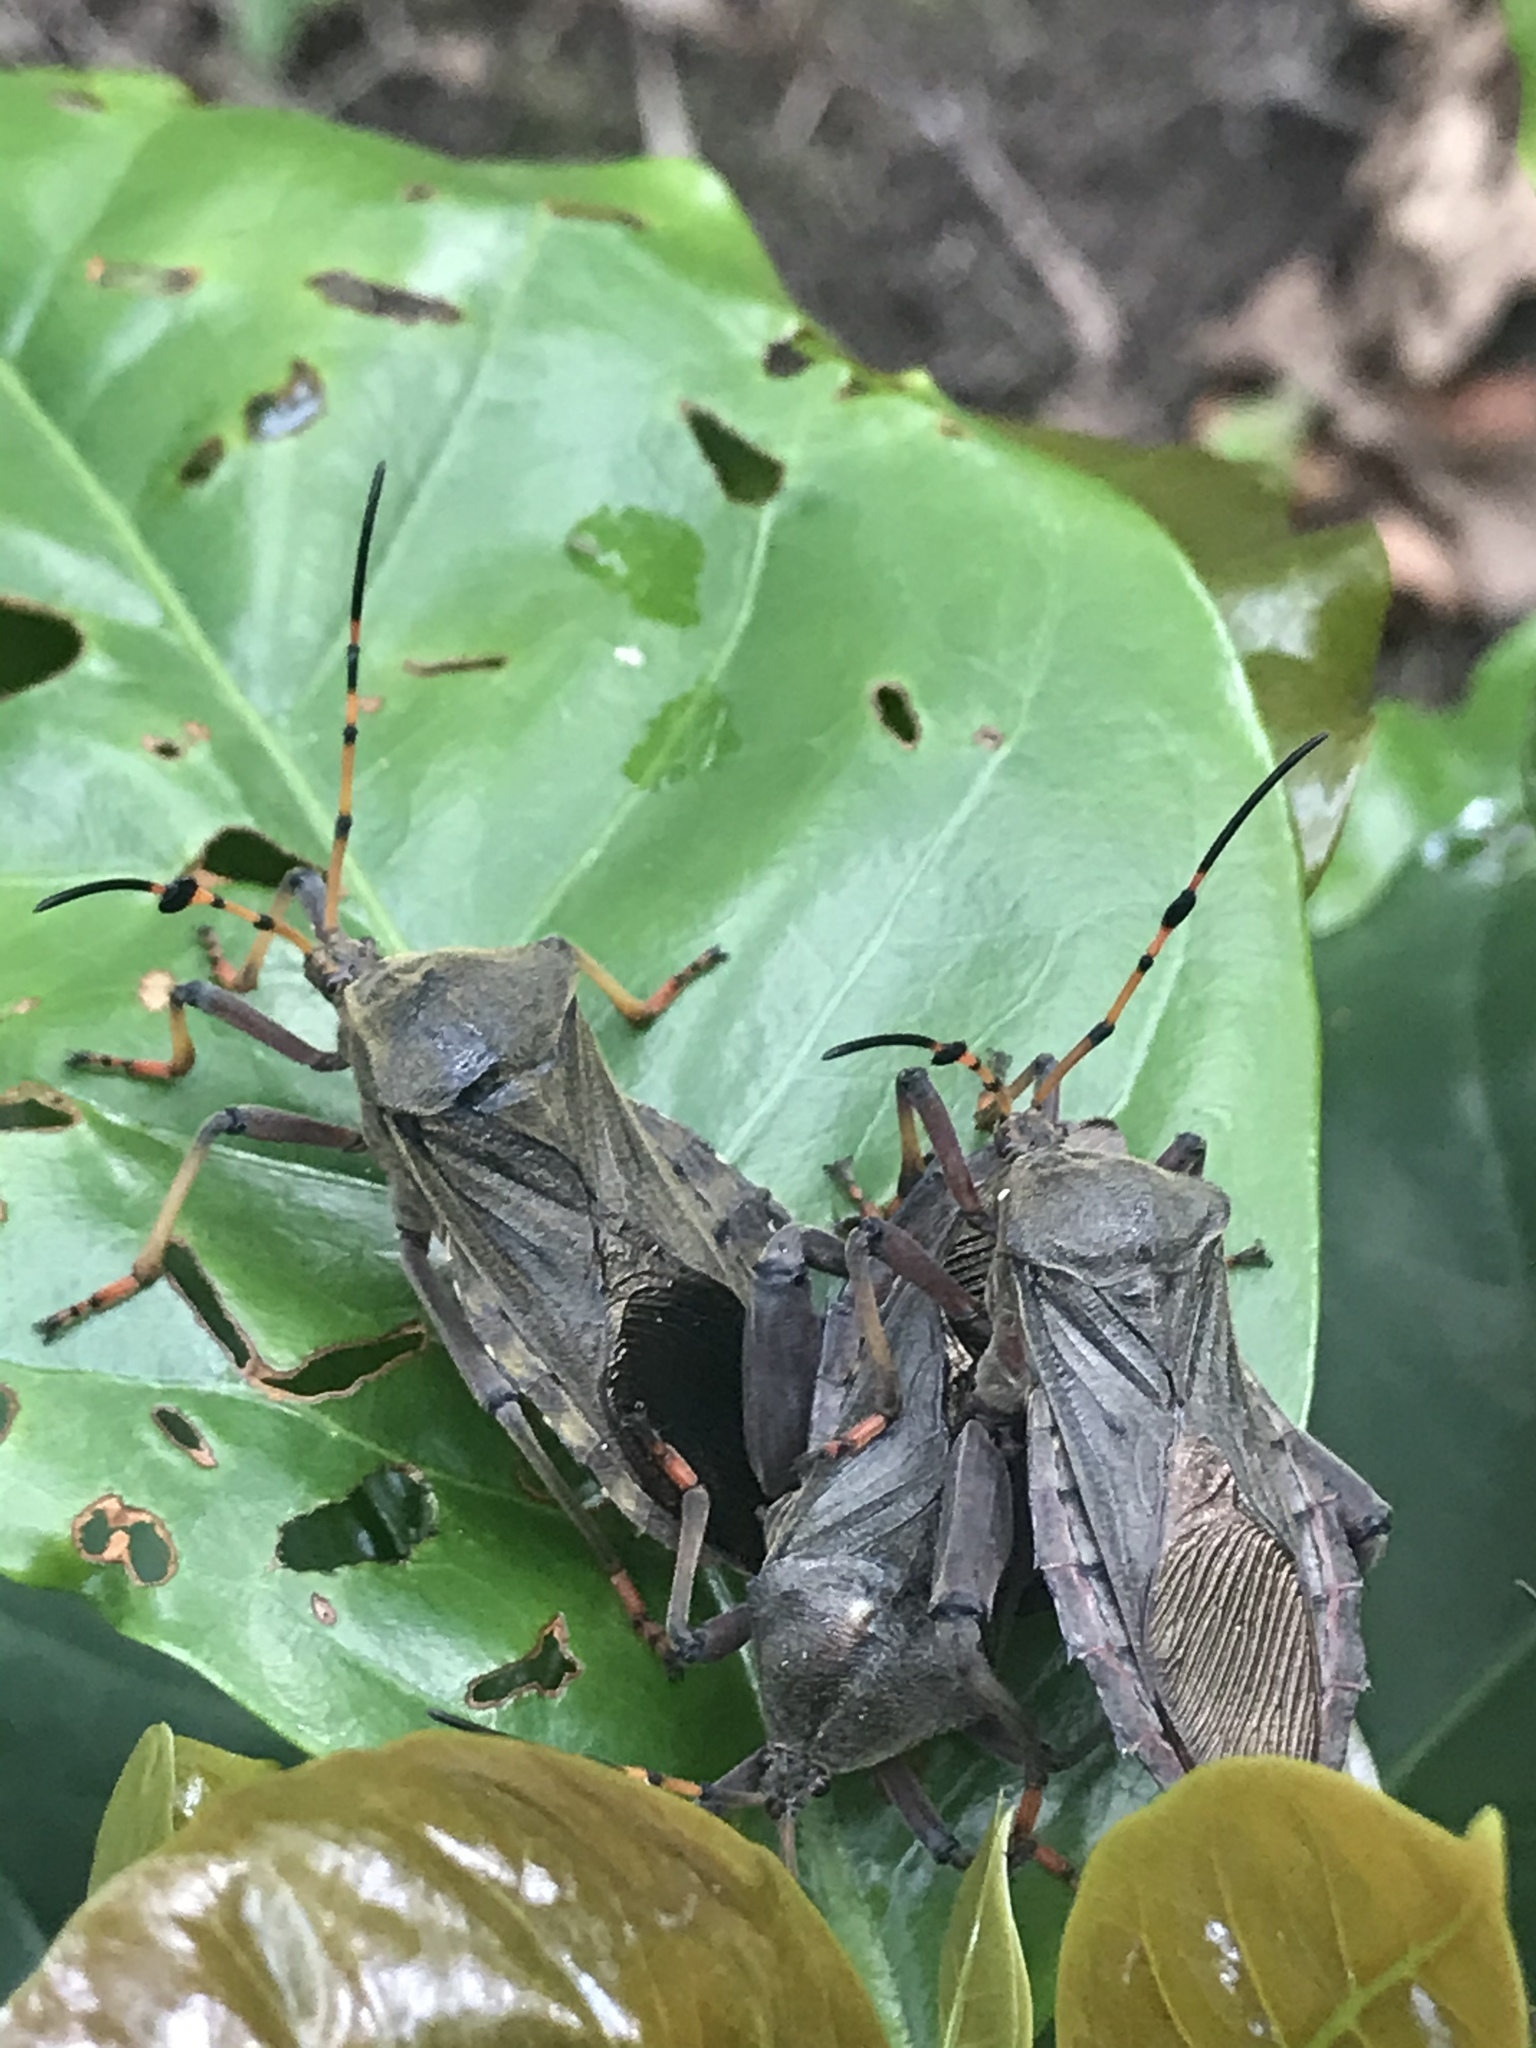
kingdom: Animalia
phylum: Arthropoda
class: Insecta
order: Hemiptera
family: Coreidae
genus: Pachylis
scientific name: Pachylis peramplus
